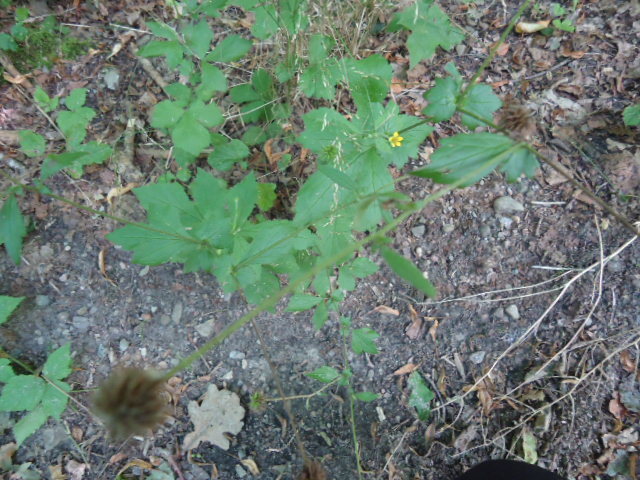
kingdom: Plantae
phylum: Tracheophyta
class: Magnoliopsida
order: Rosales
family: Rosaceae
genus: Geum
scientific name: Geum urbanum
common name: Wood avens
